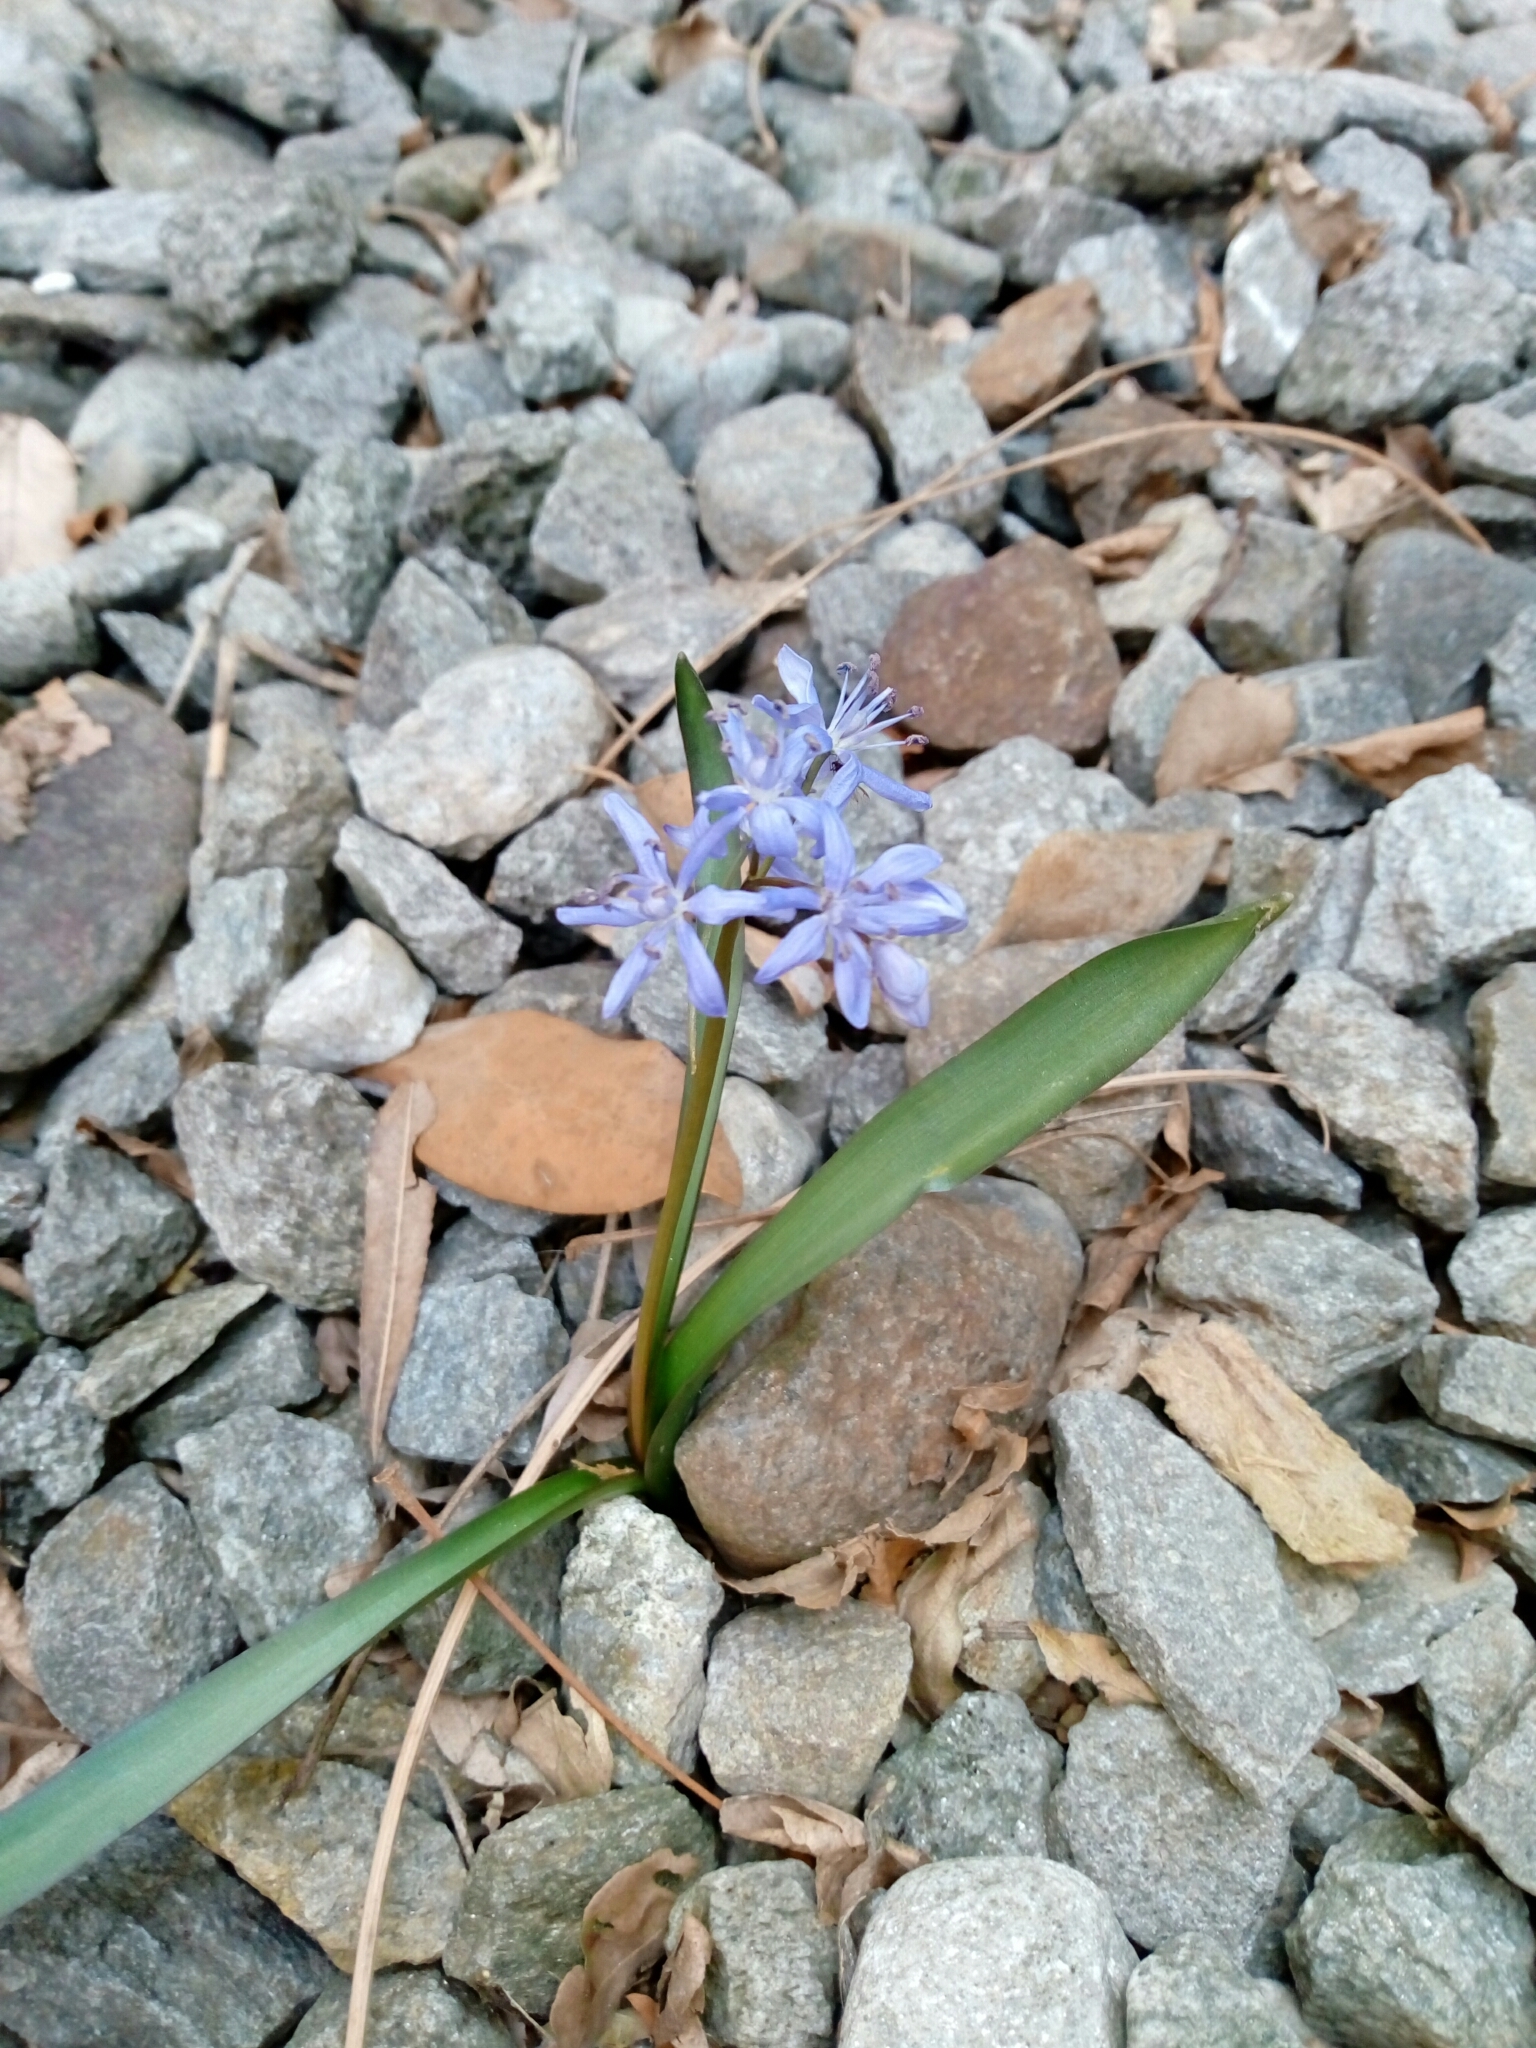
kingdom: Plantae
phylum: Tracheophyta
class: Liliopsida
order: Asparagales
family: Asparagaceae
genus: Scilla
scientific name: Scilla bifolia
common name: Alpine squill
